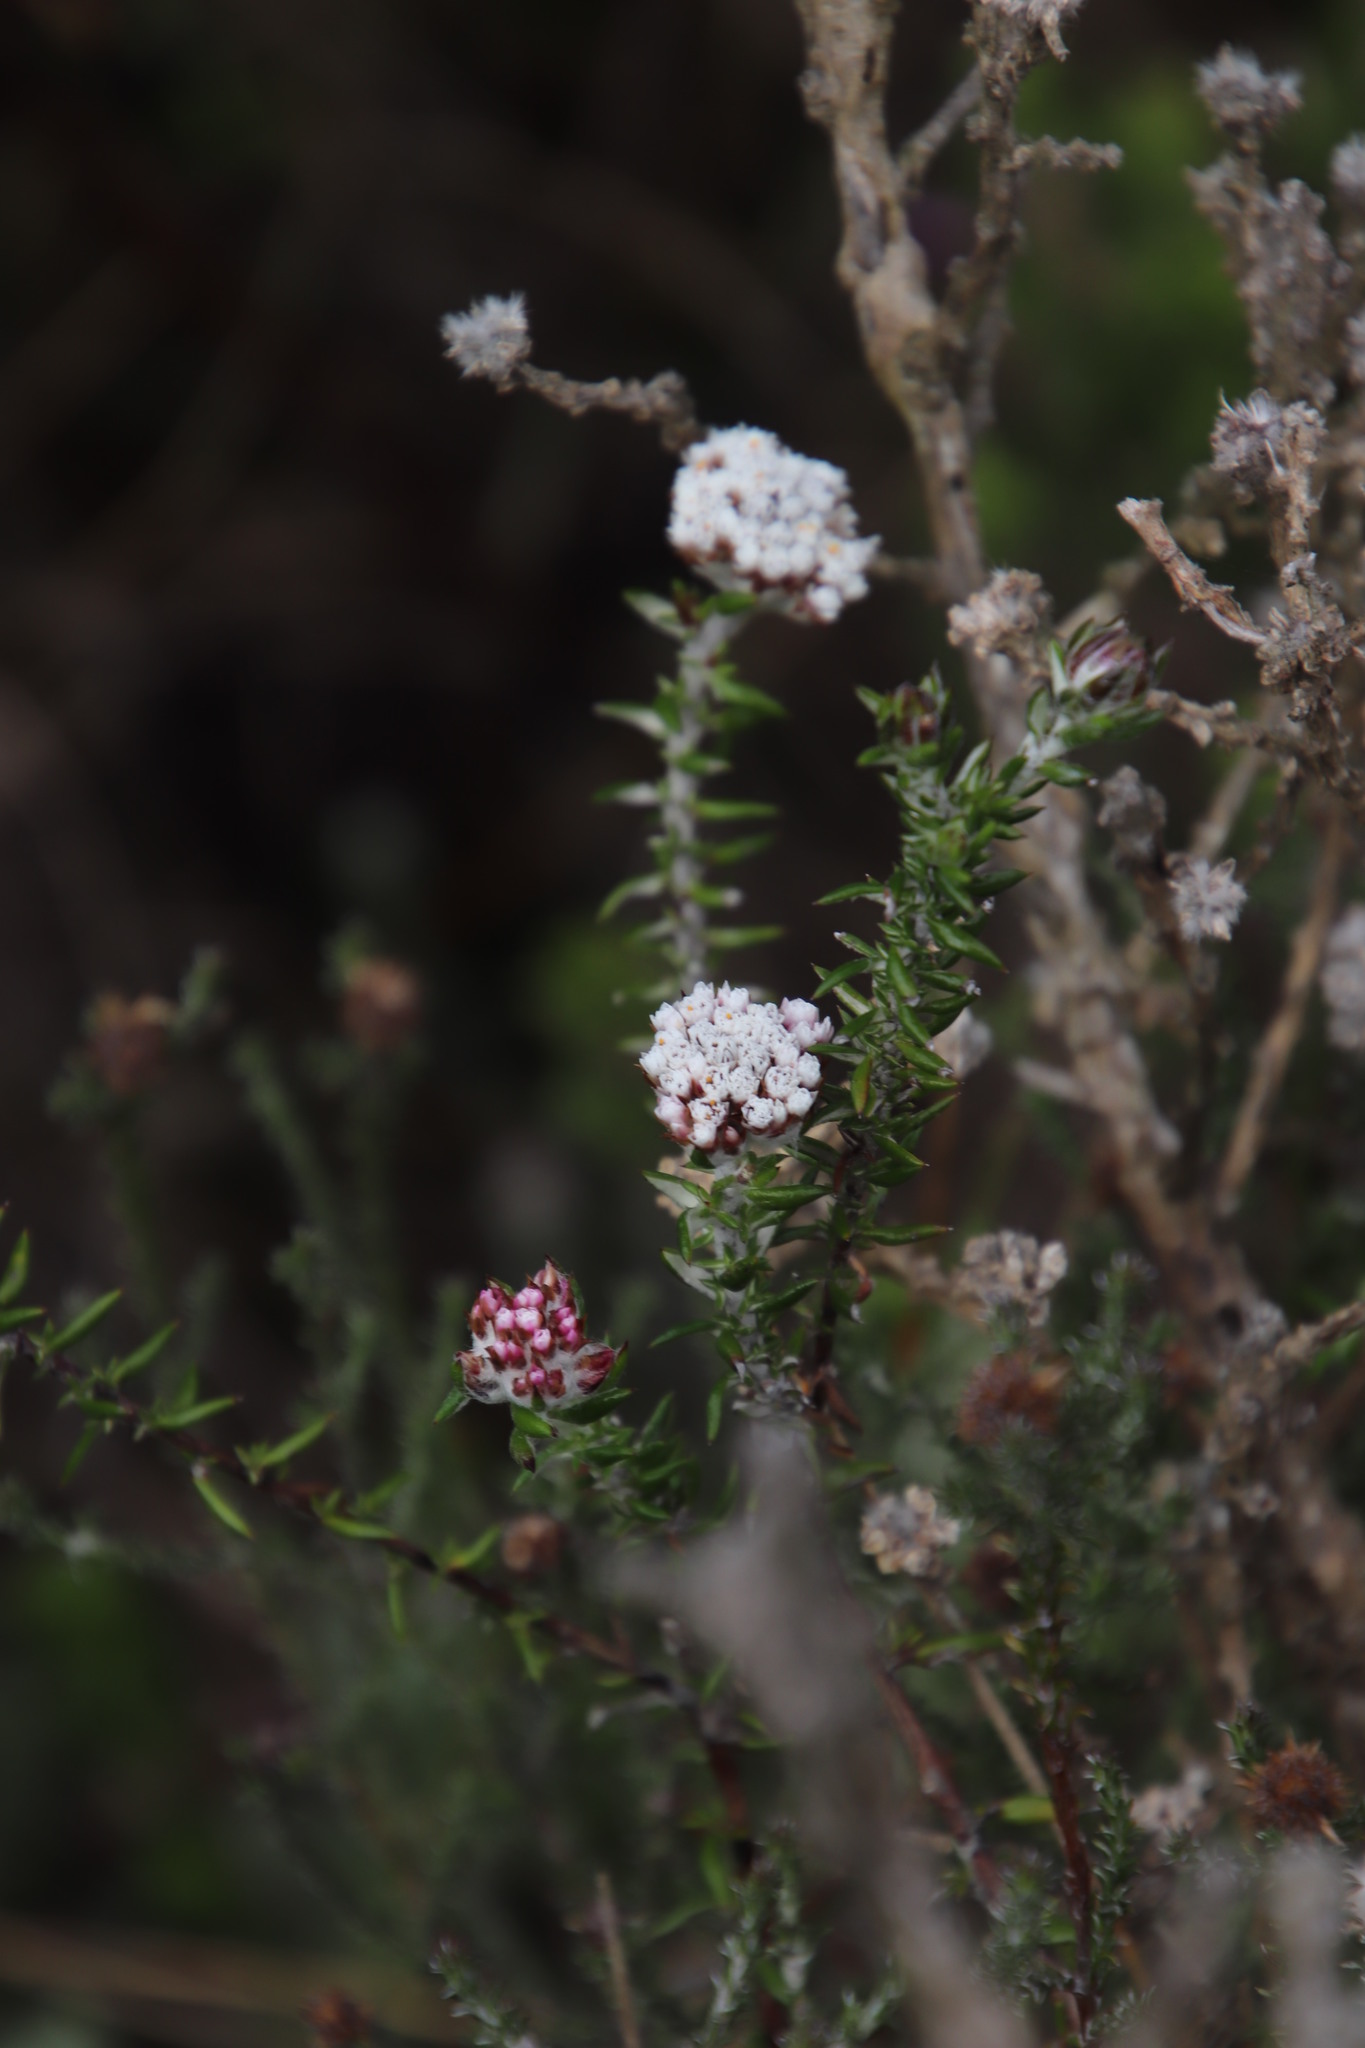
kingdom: Plantae
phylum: Tracheophyta
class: Magnoliopsida
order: Asterales
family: Asteraceae
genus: Metalasia
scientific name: Metalasia divergens
